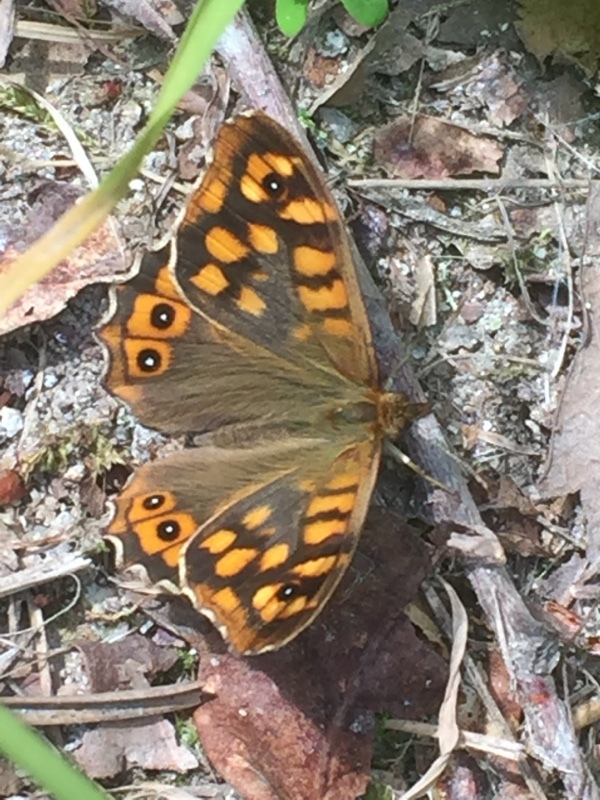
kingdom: Animalia
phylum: Arthropoda
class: Insecta
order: Lepidoptera
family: Nymphalidae
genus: Pararge
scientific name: Pararge aegeria
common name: Speckled wood
